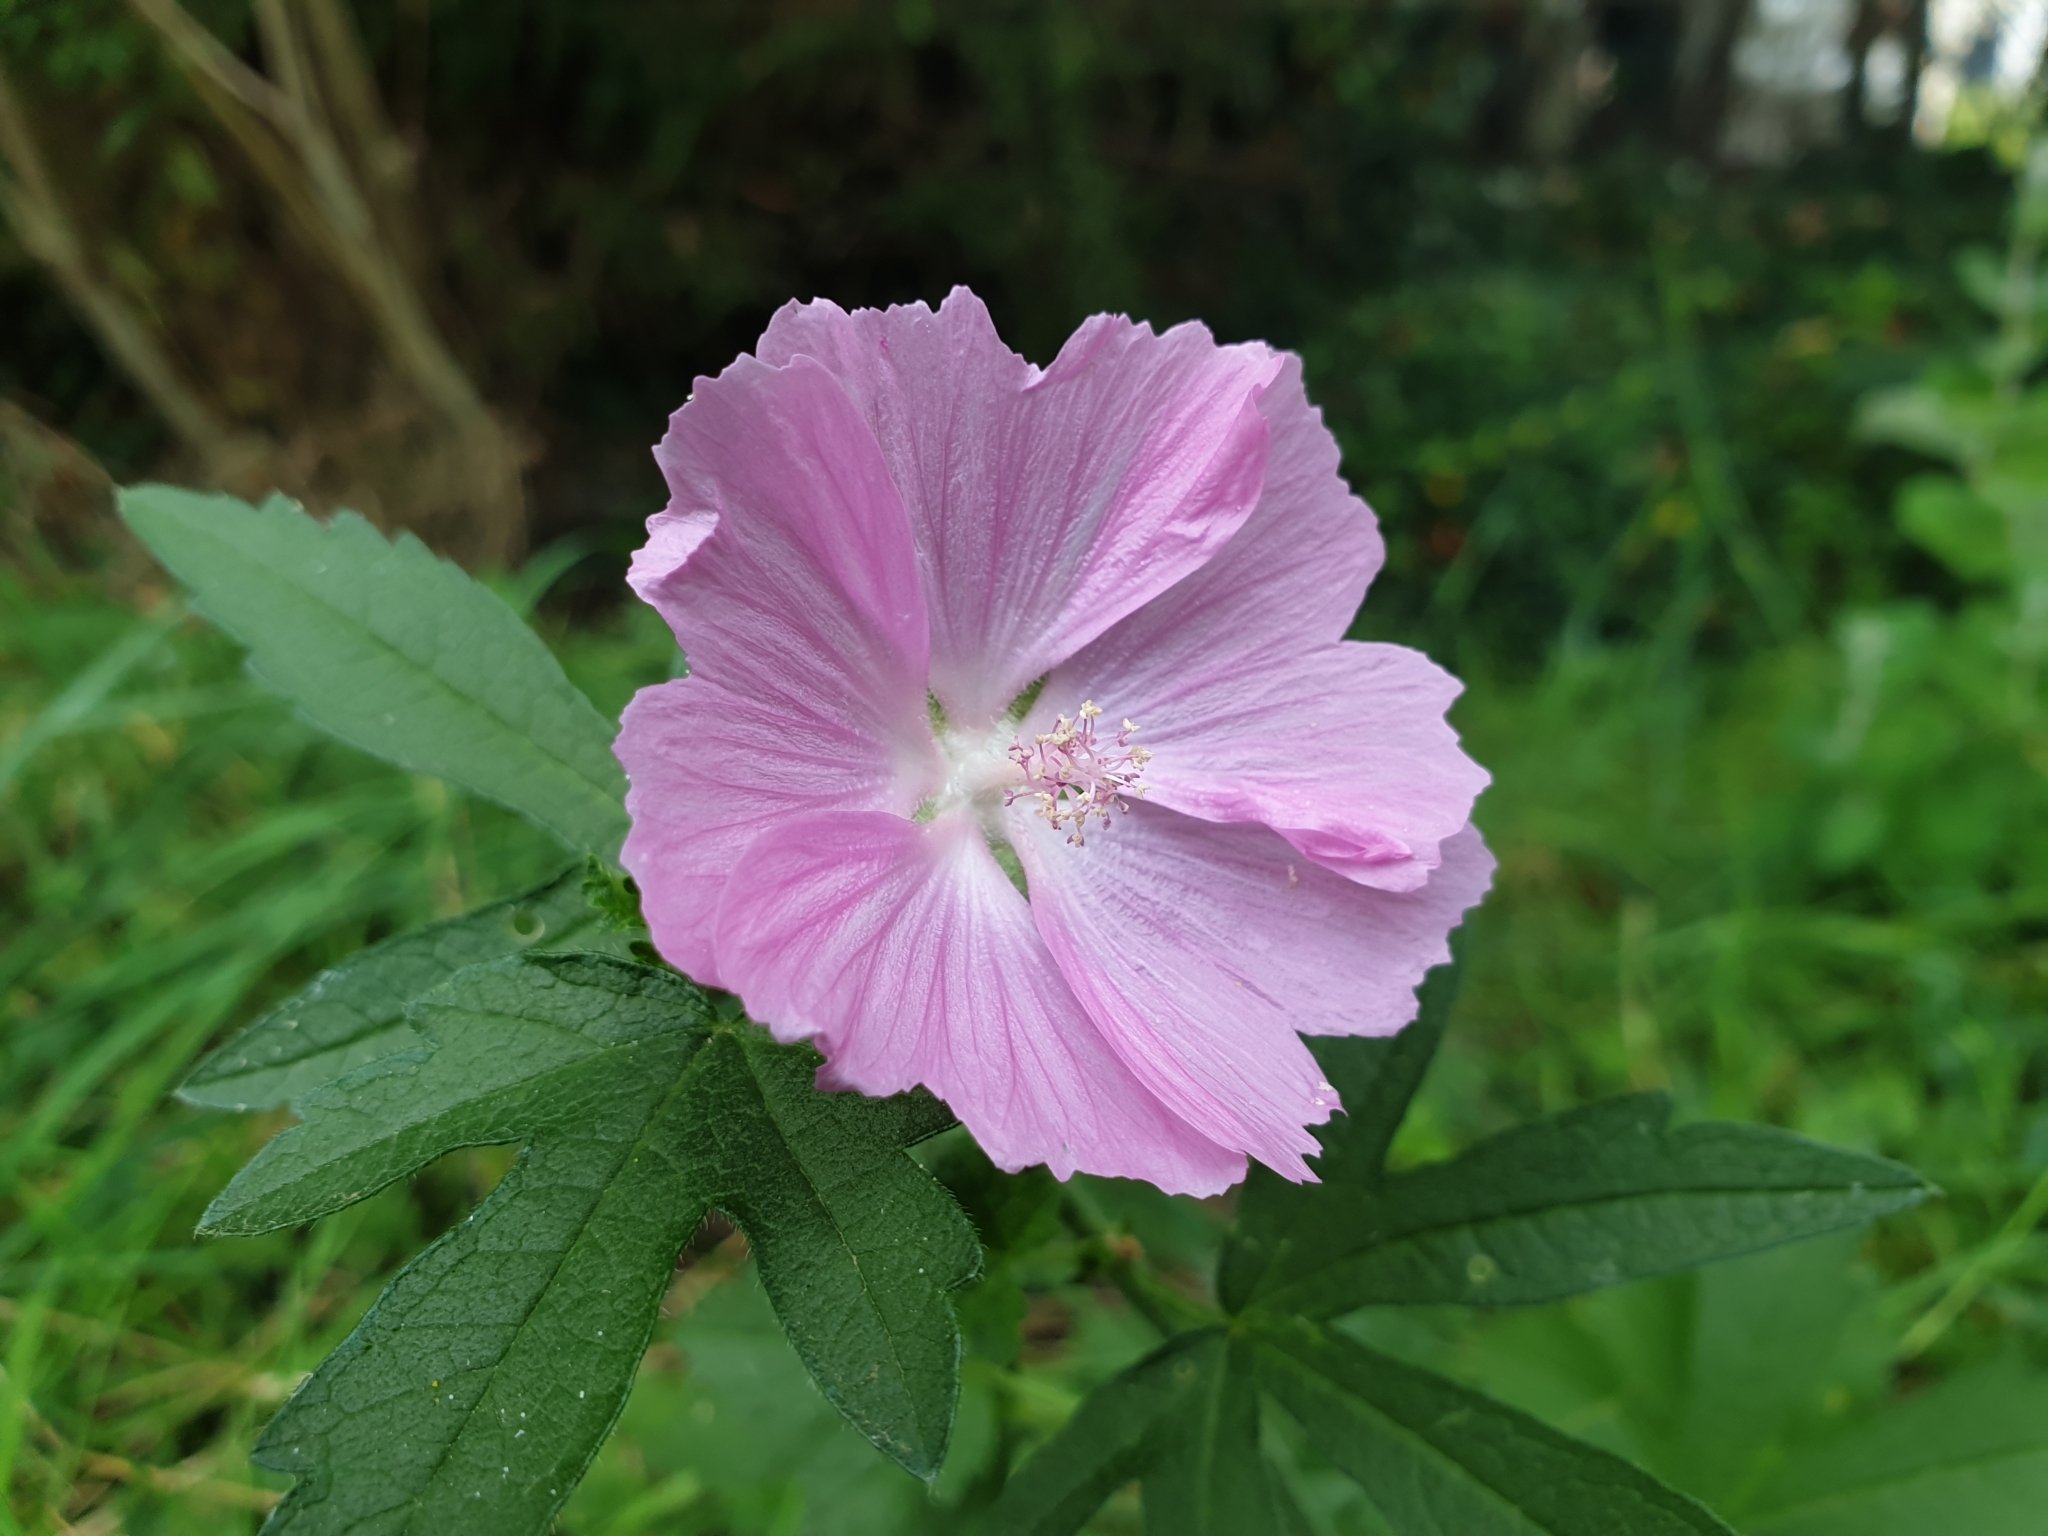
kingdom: Plantae
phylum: Tracheophyta
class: Magnoliopsida
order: Malvales
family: Malvaceae
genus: Malva
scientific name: Malva alcea
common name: Greater musk-mallow
